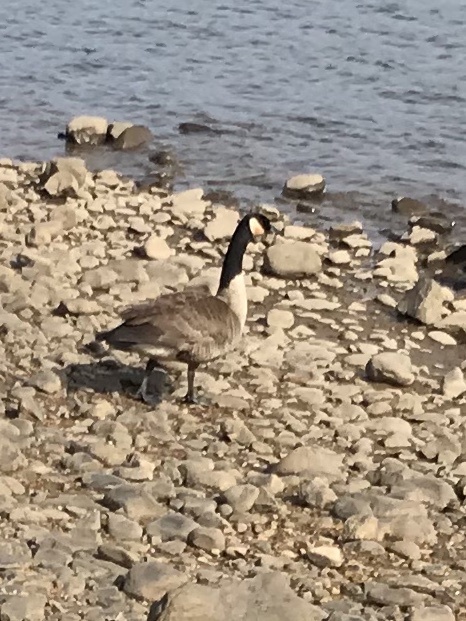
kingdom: Animalia
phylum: Chordata
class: Aves
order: Anseriformes
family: Anatidae
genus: Branta
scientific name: Branta canadensis
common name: Canada goose
